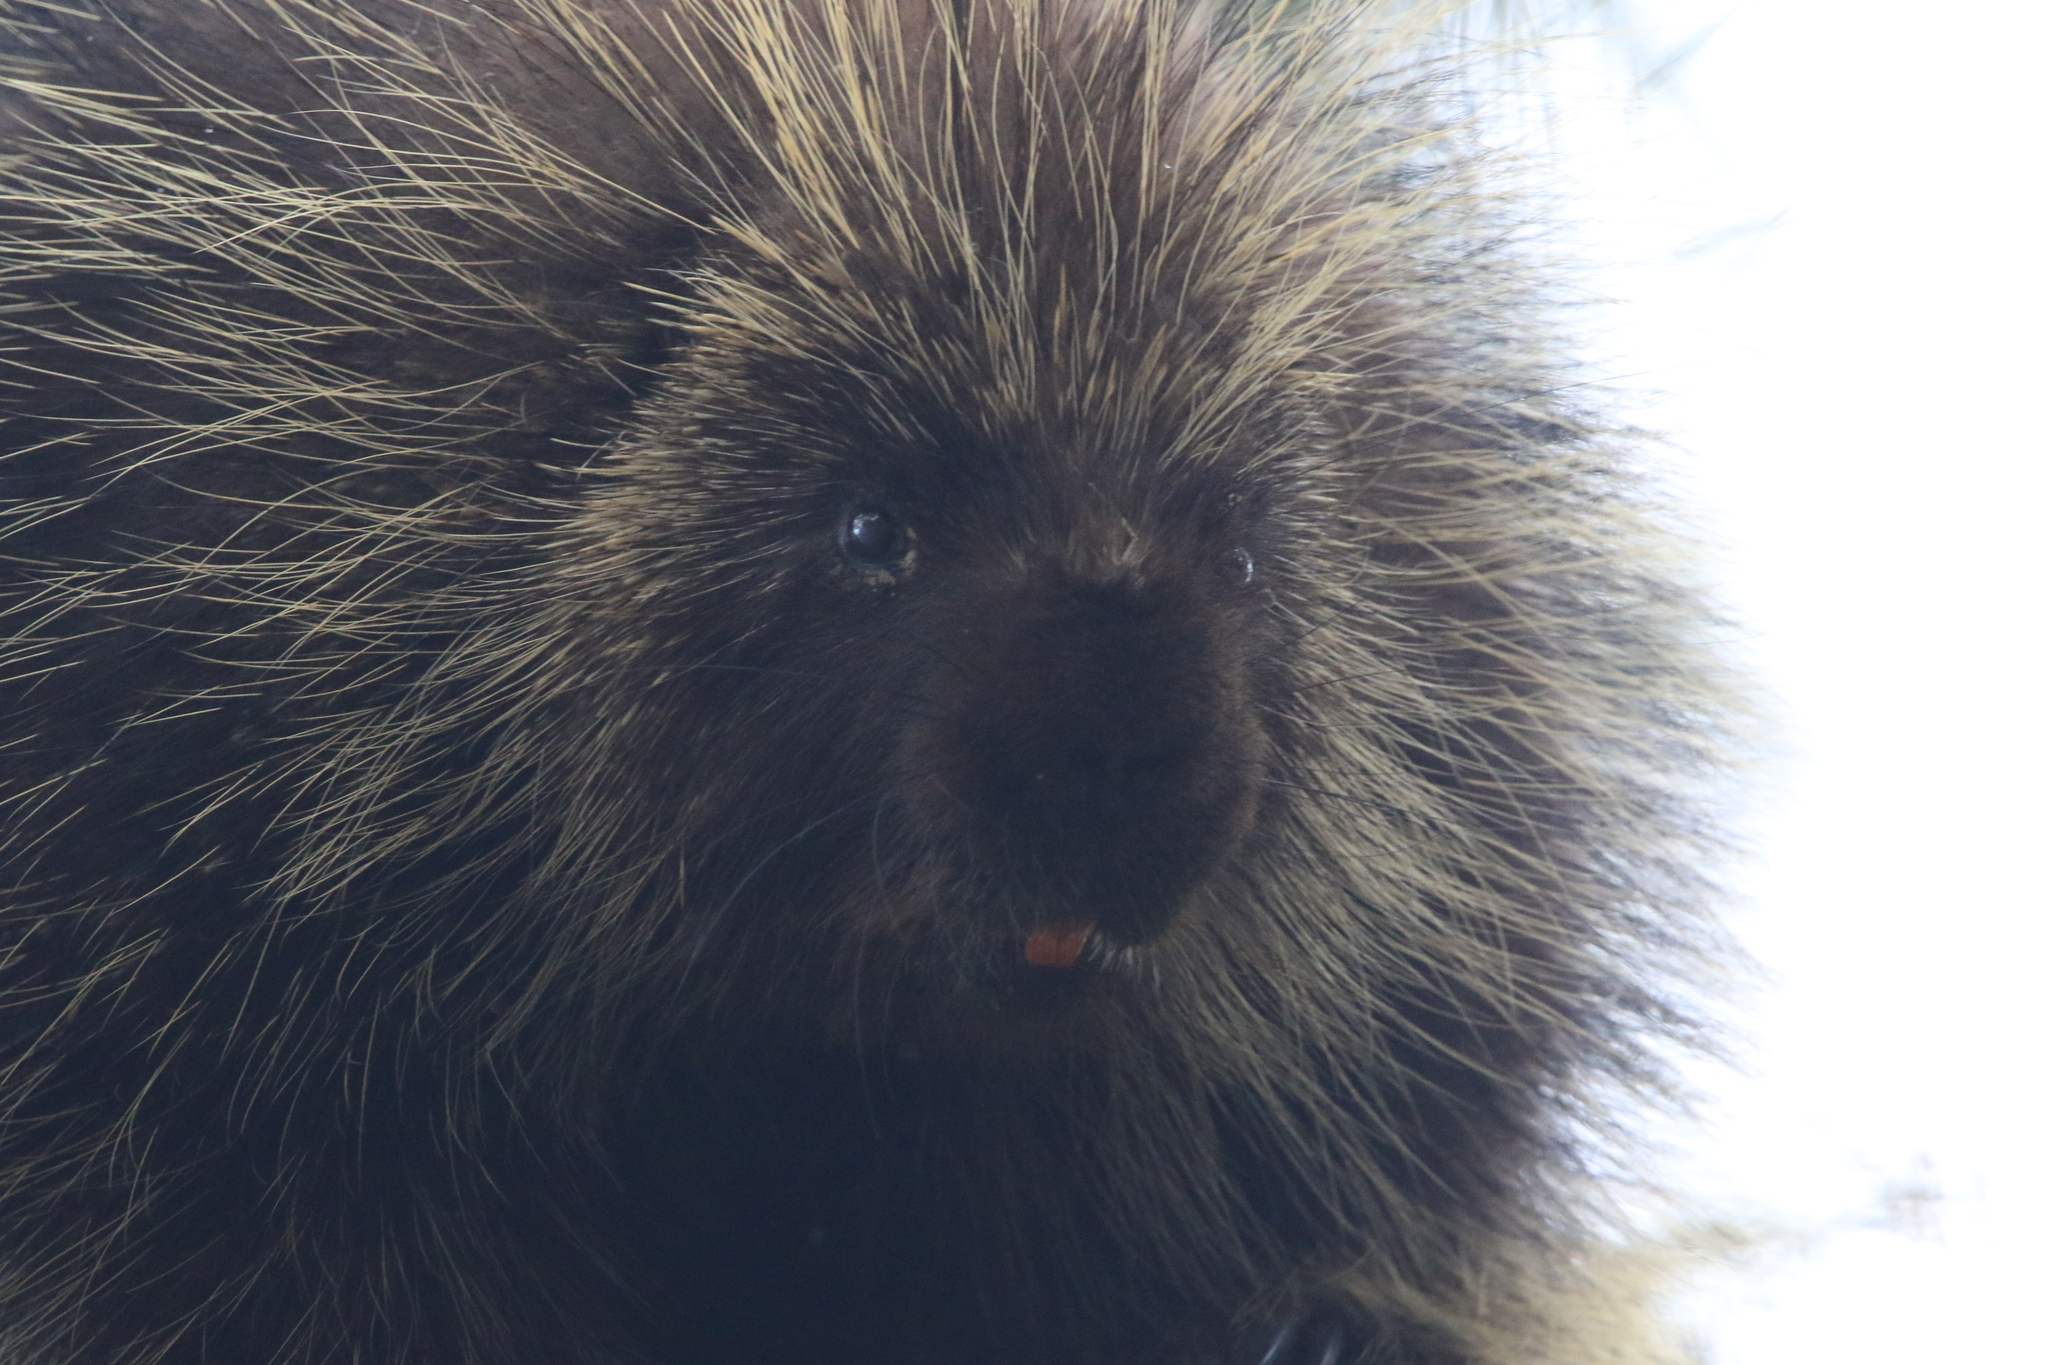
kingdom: Animalia
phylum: Chordata
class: Mammalia
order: Rodentia
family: Erethizontidae
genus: Erethizon
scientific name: Erethizon dorsatus
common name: North american porcupine
